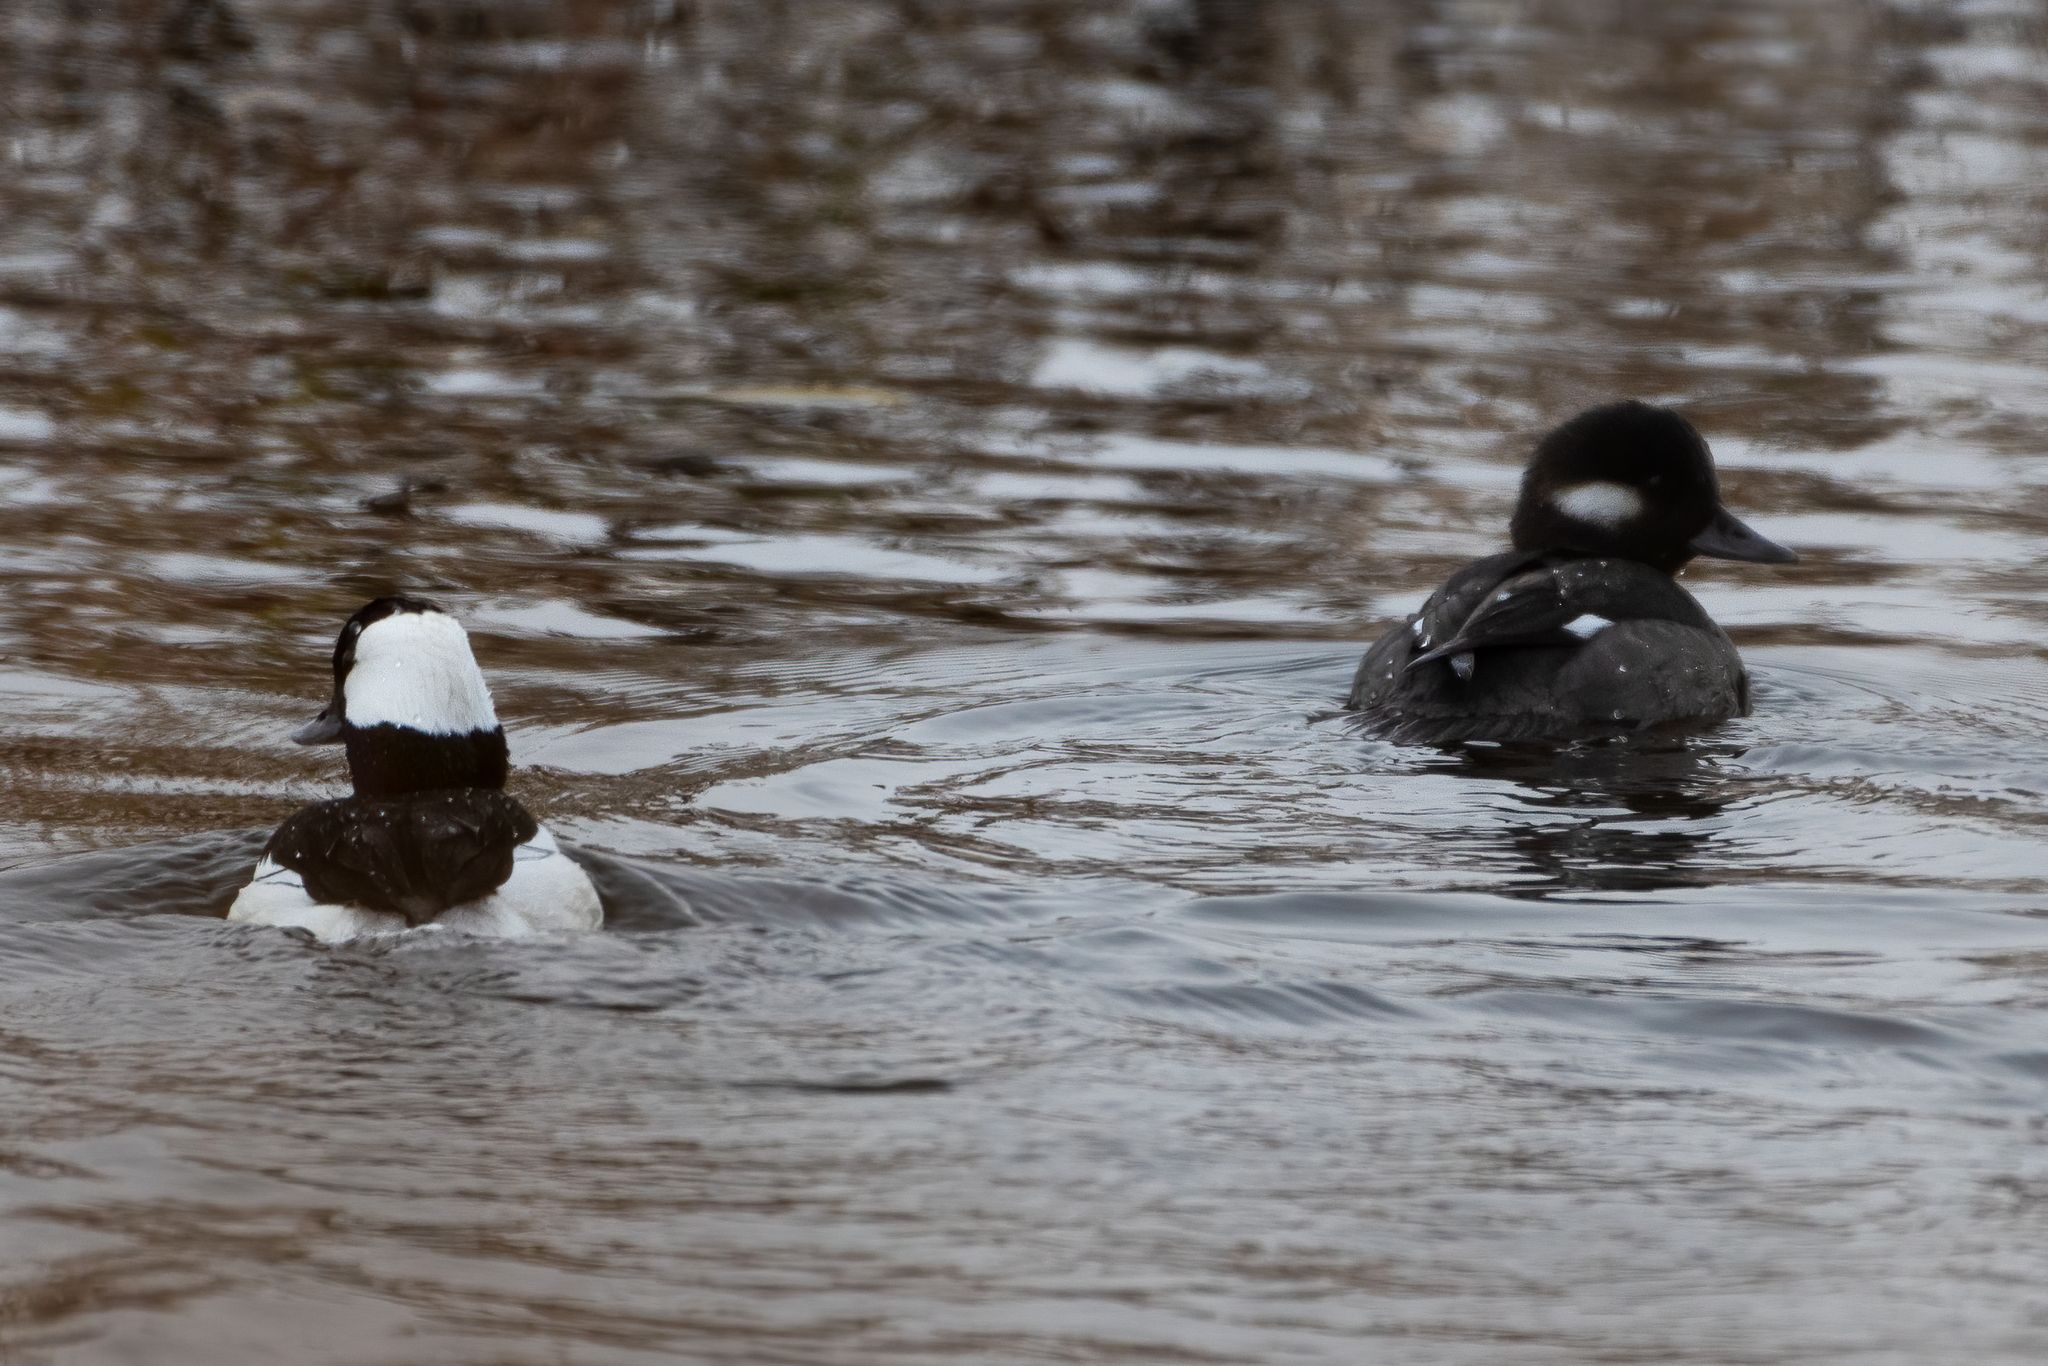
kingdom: Animalia
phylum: Chordata
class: Aves
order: Anseriformes
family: Anatidae
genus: Bucephala
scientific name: Bucephala albeola
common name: Bufflehead
